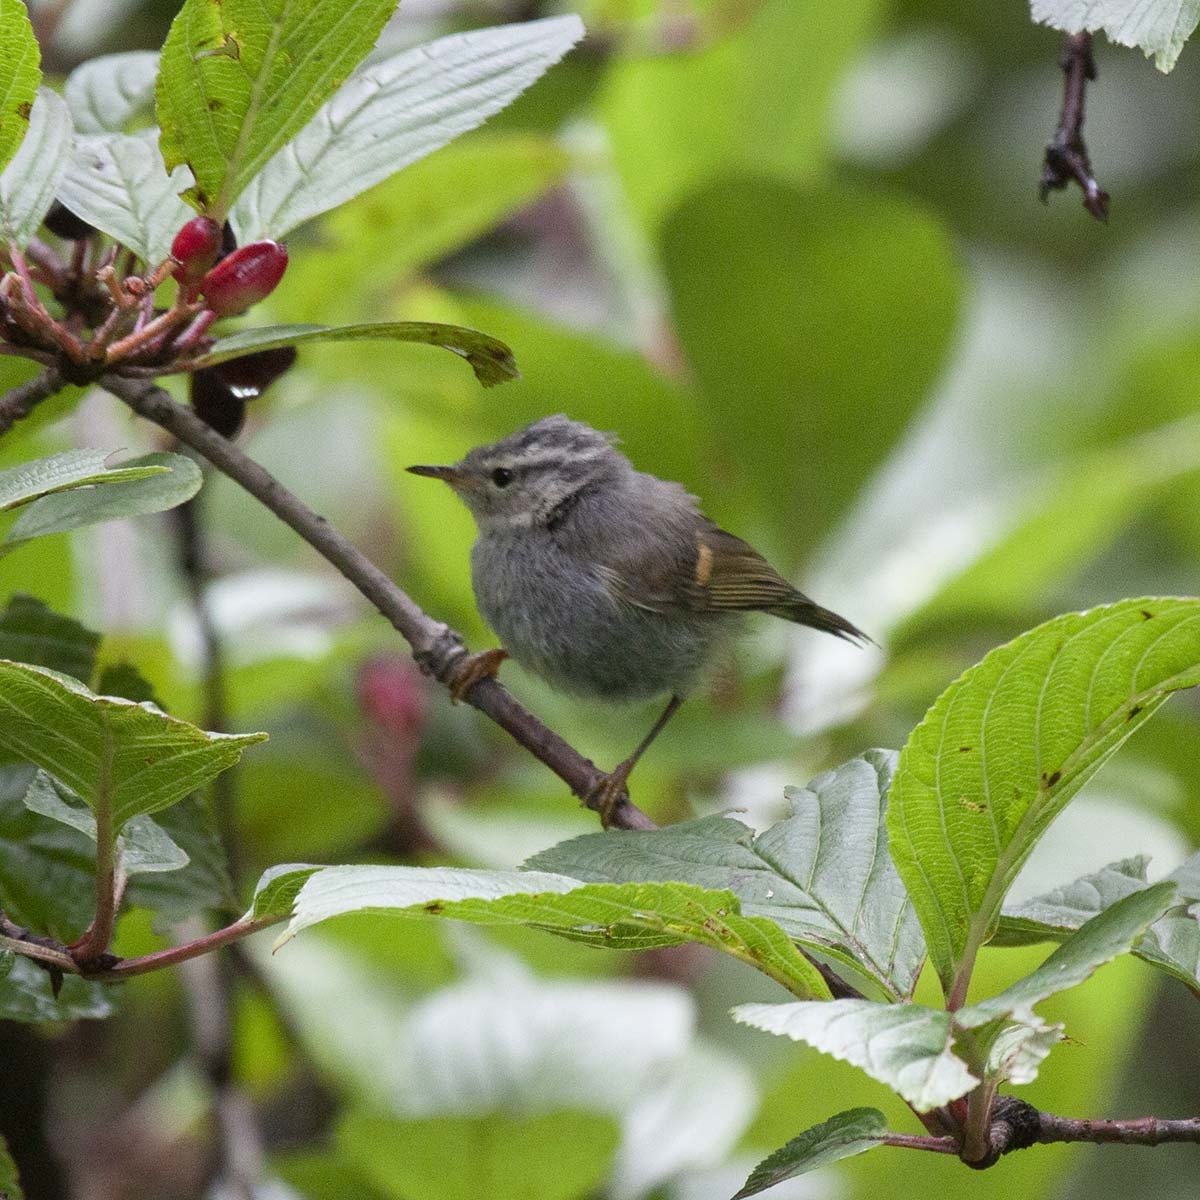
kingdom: Animalia
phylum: Chordata
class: Aves
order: Passeriformes
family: Phylloscopidae
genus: Phylloscopus
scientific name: Phylloscopus pulcher
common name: Buff-barred warbler
